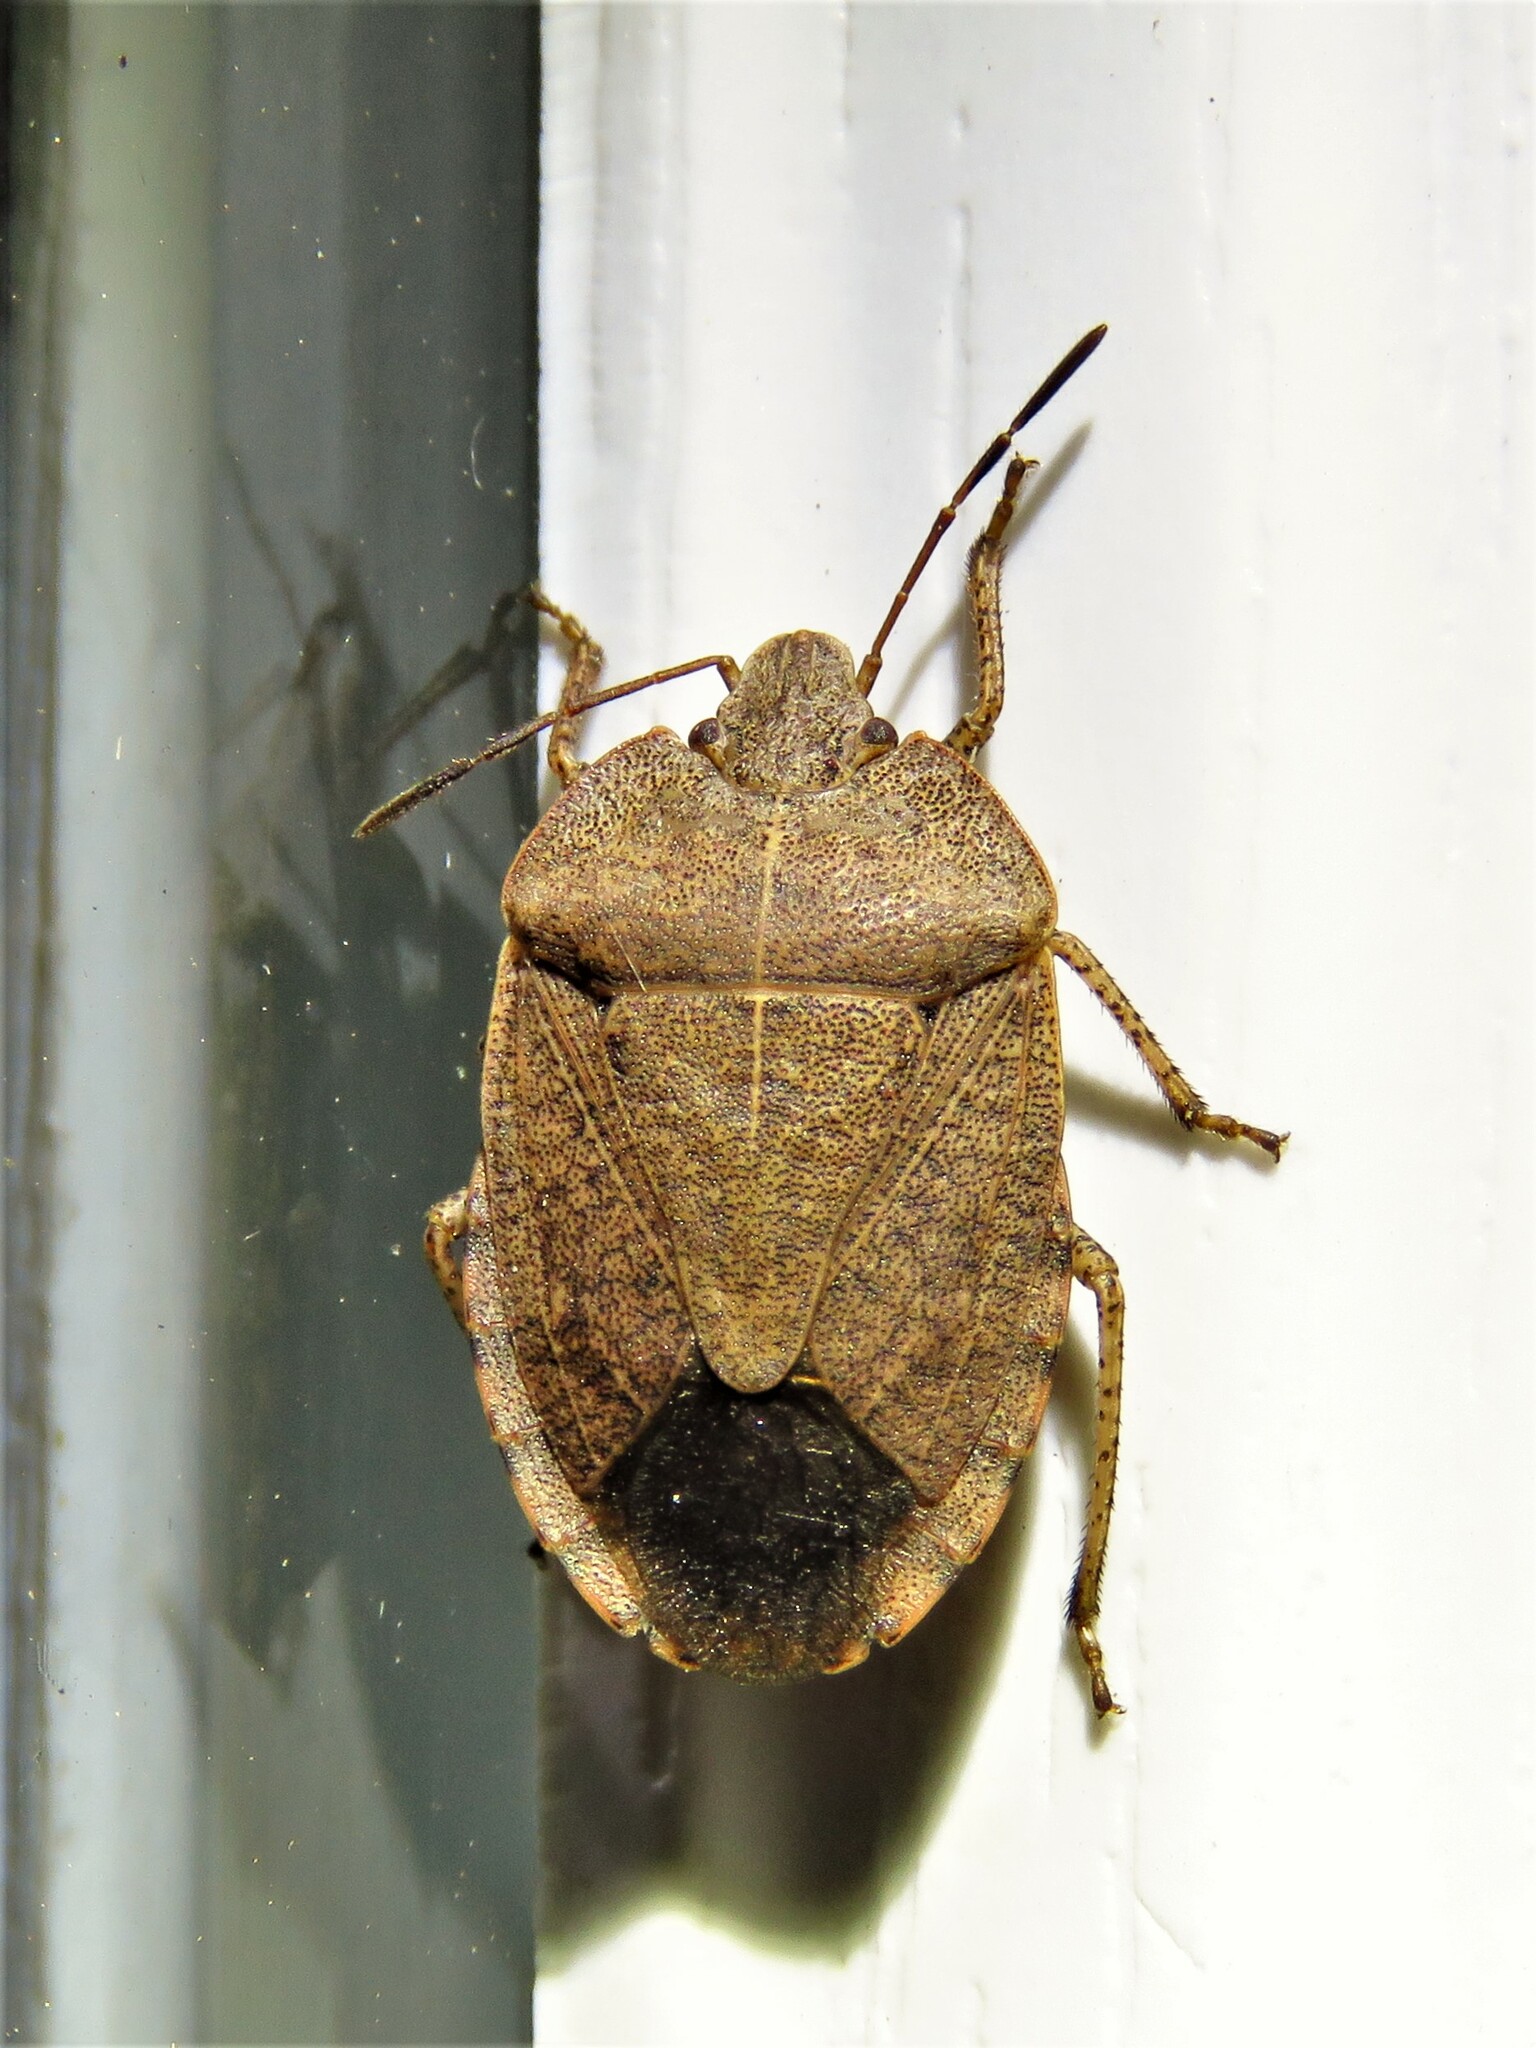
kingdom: Animalia
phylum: Arthropoda
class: Insecta
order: Hemiptera
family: Pentatomidae
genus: Menecles
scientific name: Menecles insertus
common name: Elf shoe stink bug
